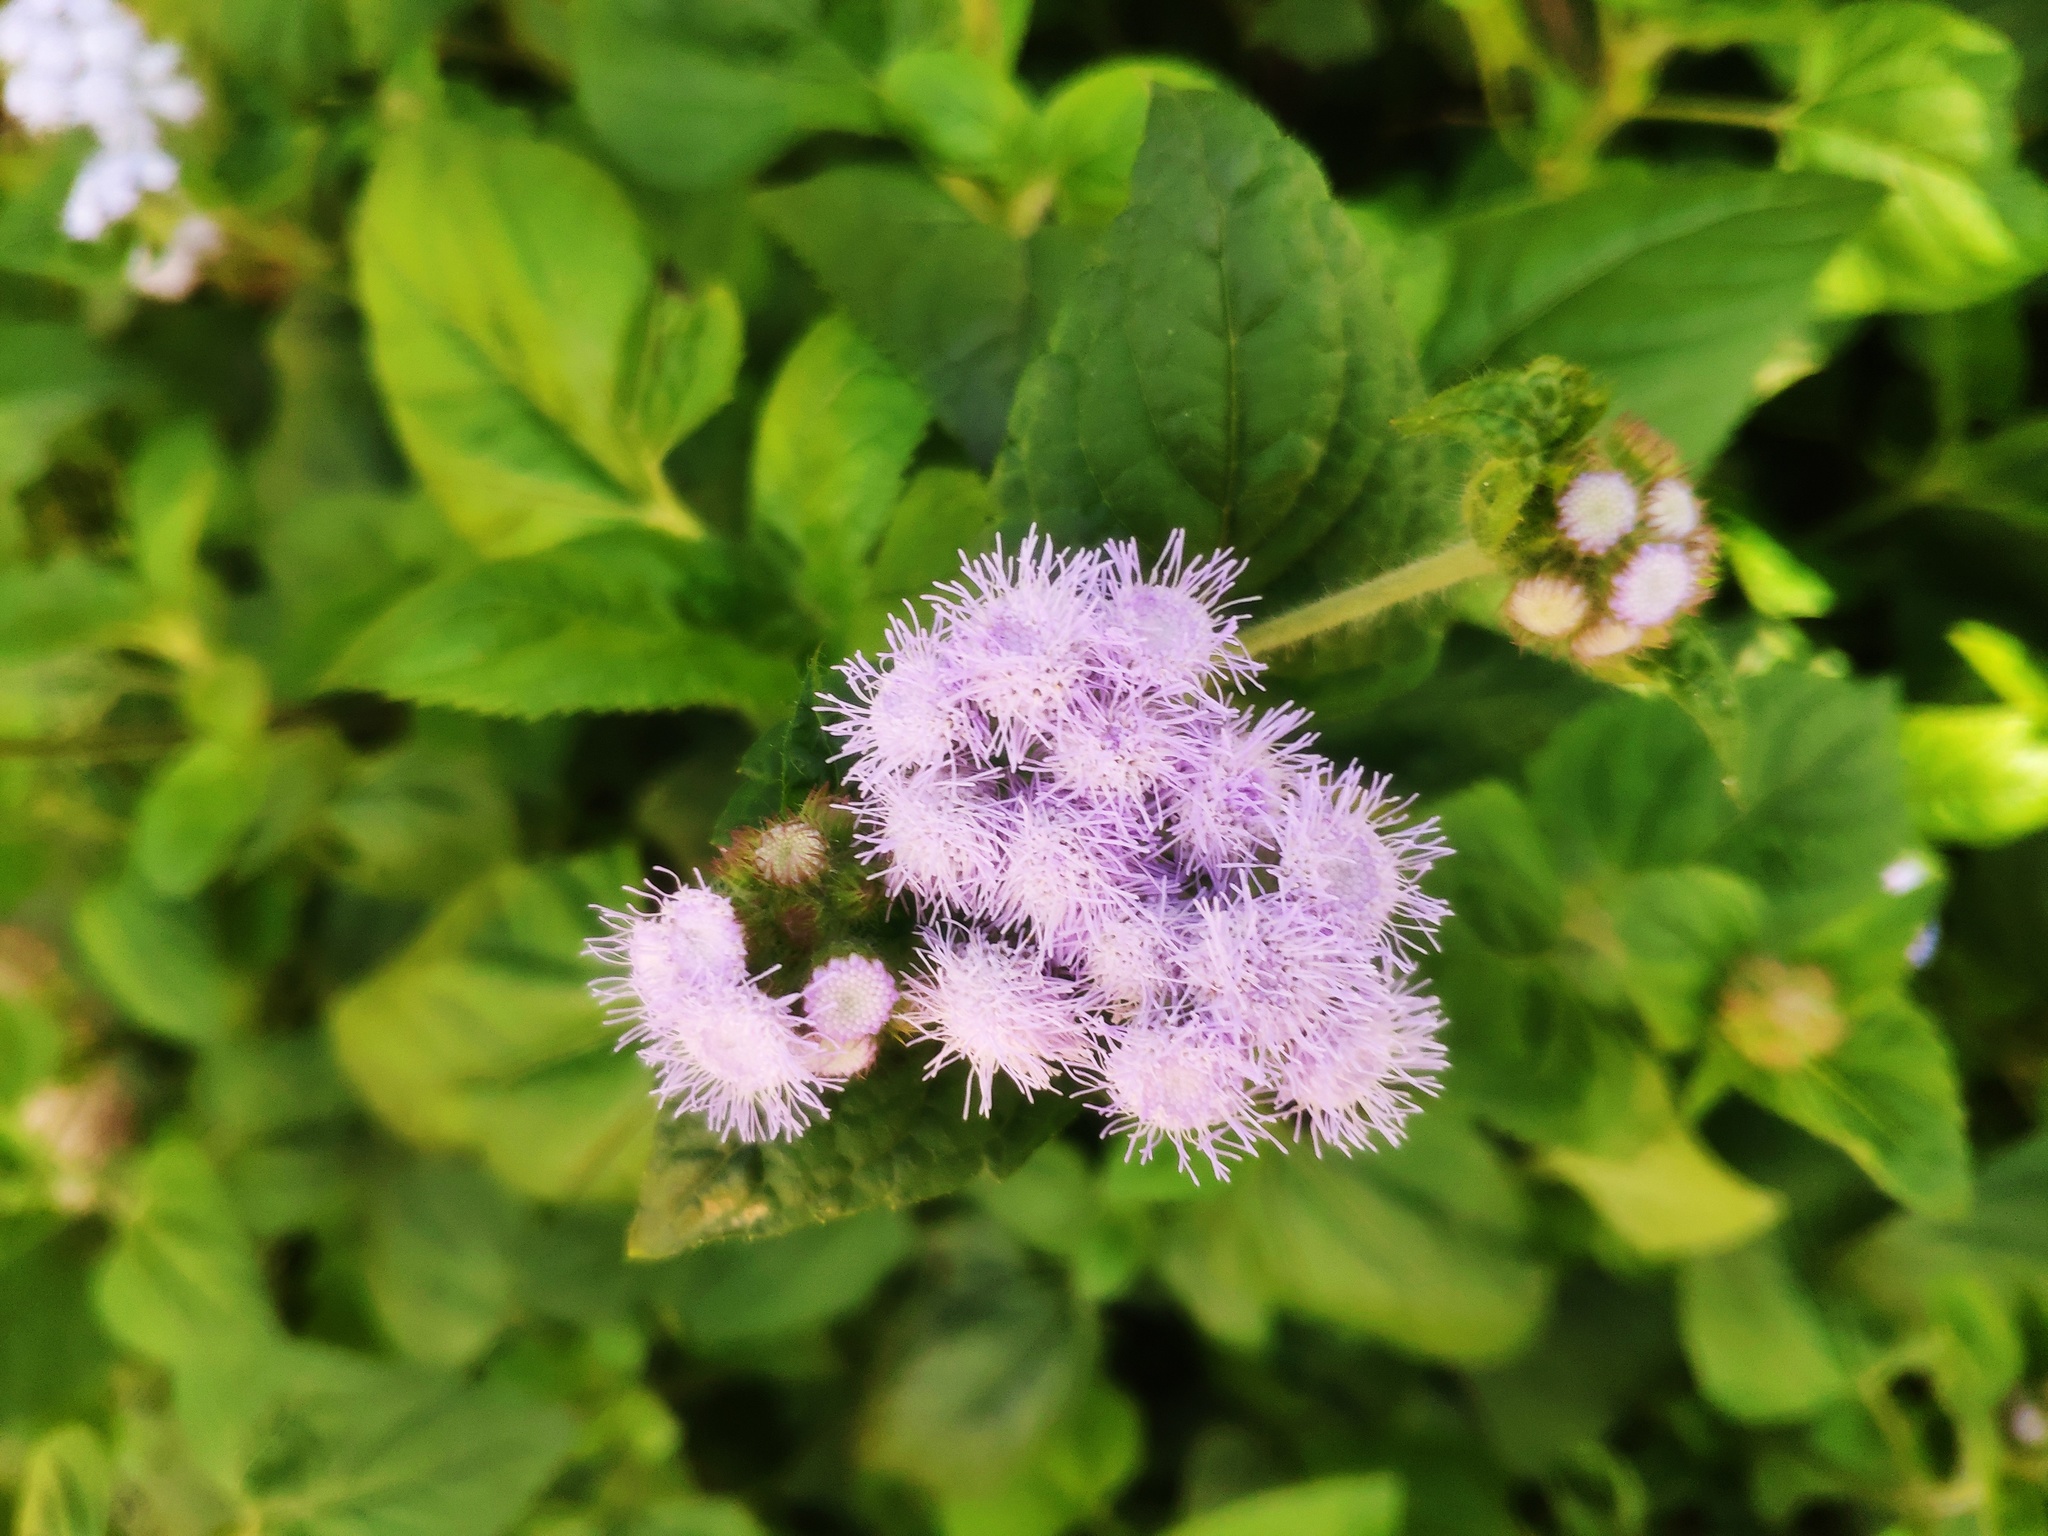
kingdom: Plantae
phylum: Tracheophyta
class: Magnoliopsida
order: Asterales
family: Asteraceae
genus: Ageratum
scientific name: Ageratum houstonianum
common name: Bluemink
